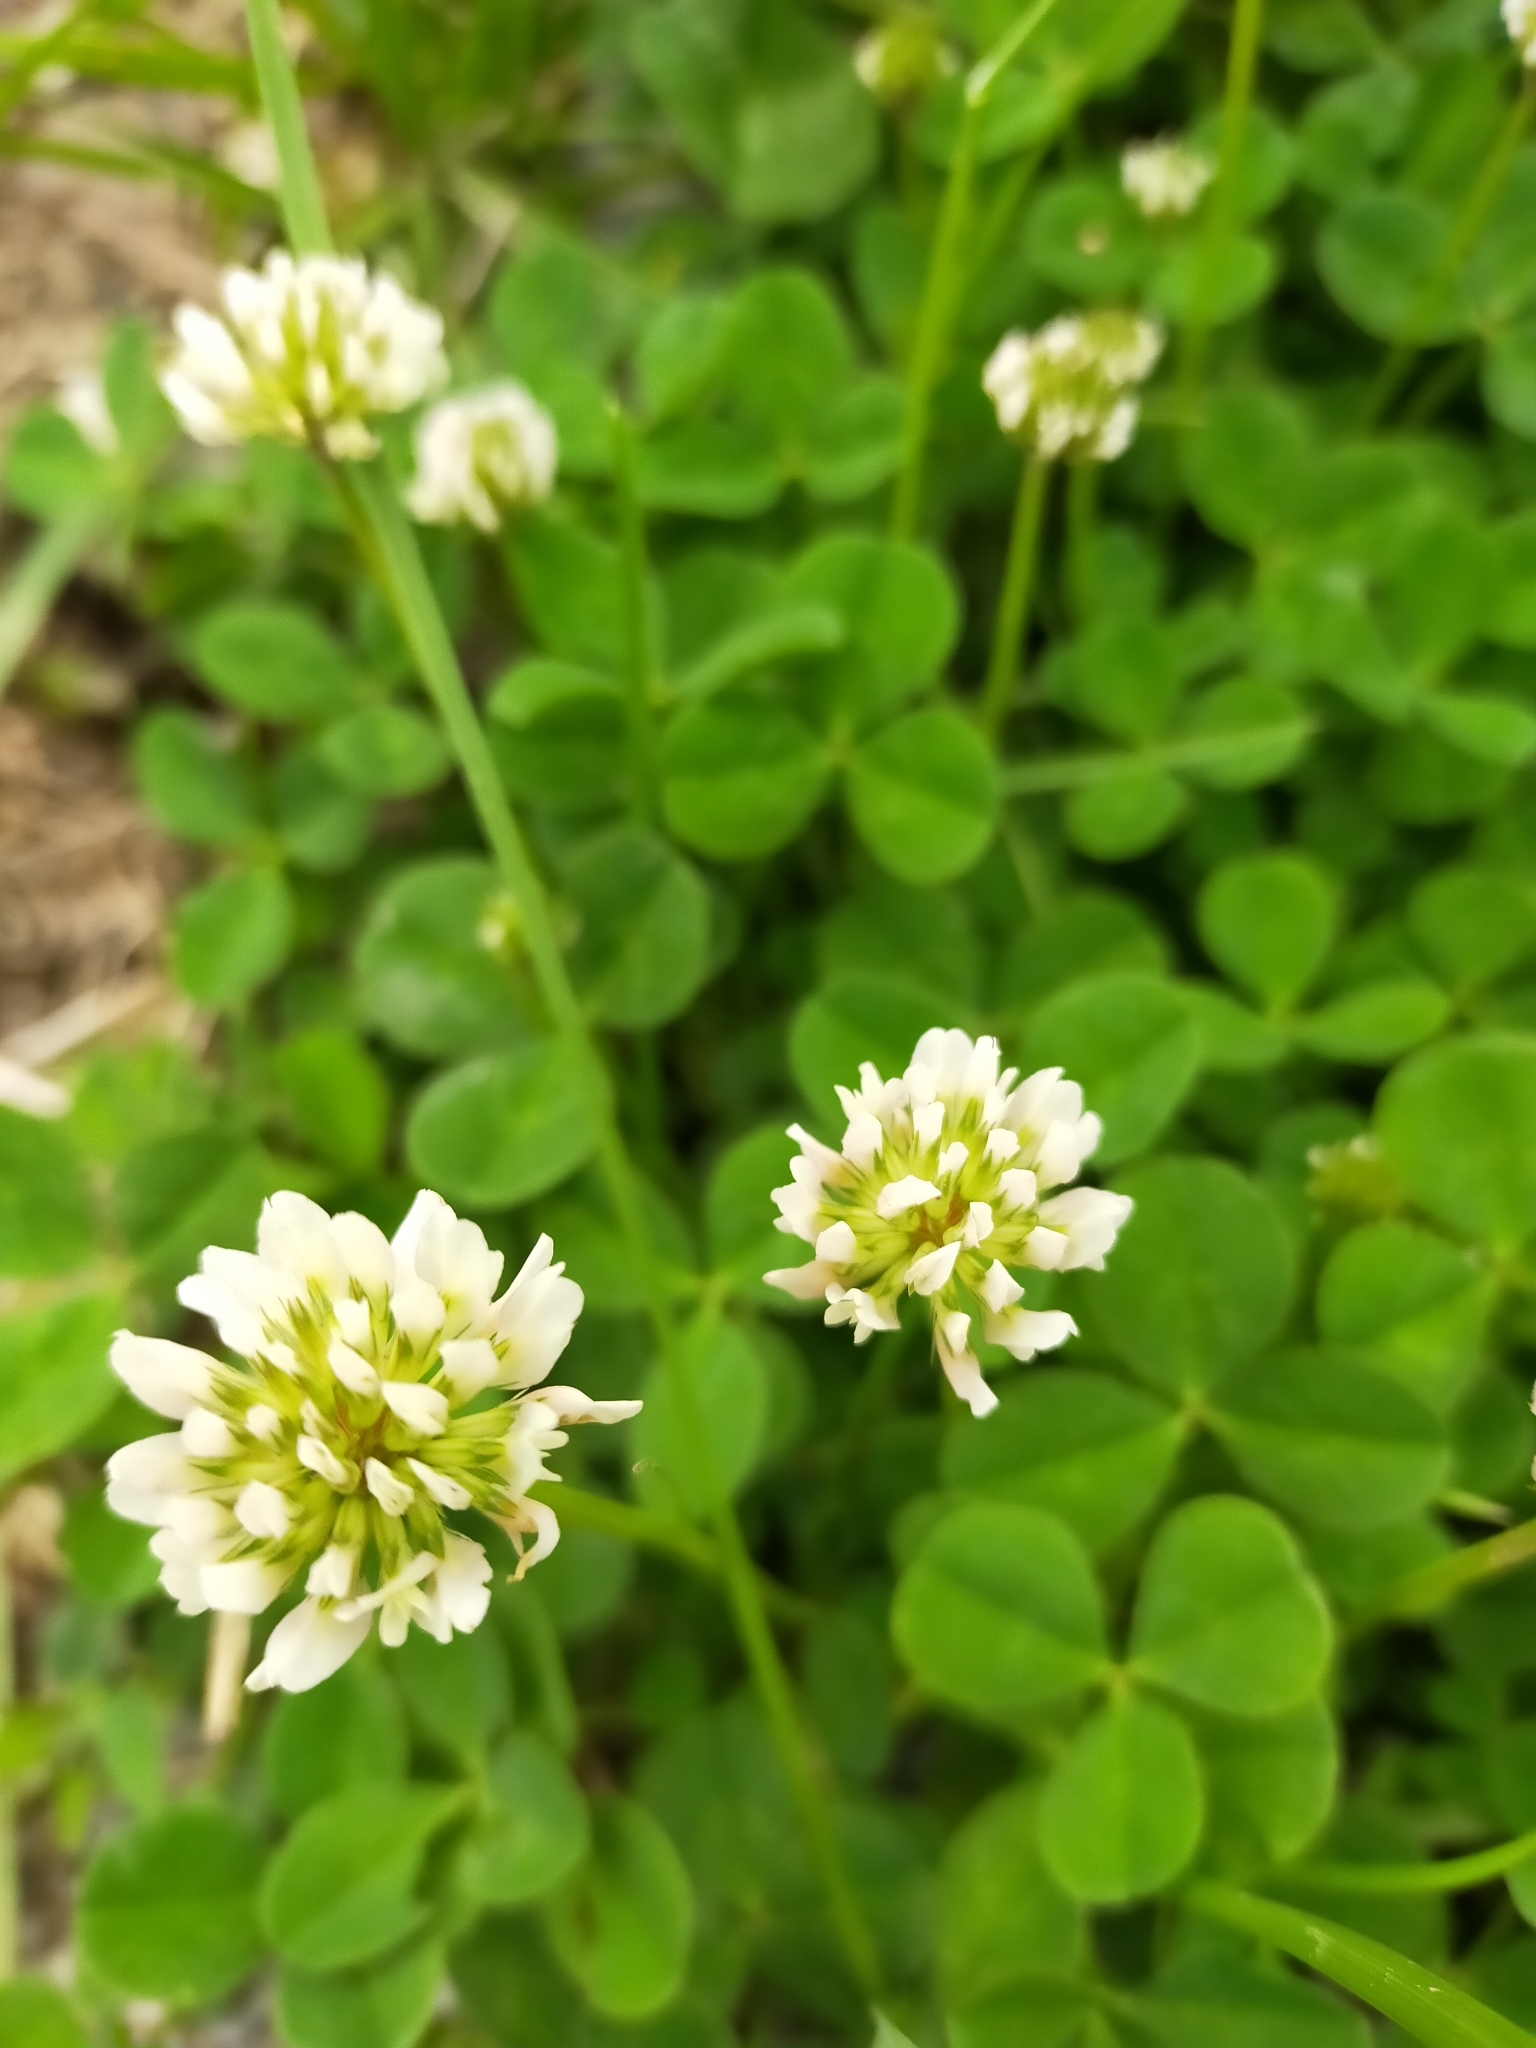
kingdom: Plantae
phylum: Tracheophyta
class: Magnoliopsida
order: Fabales
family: Fabaceae
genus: Trifolium
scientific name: Trifolium repens
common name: White clover
